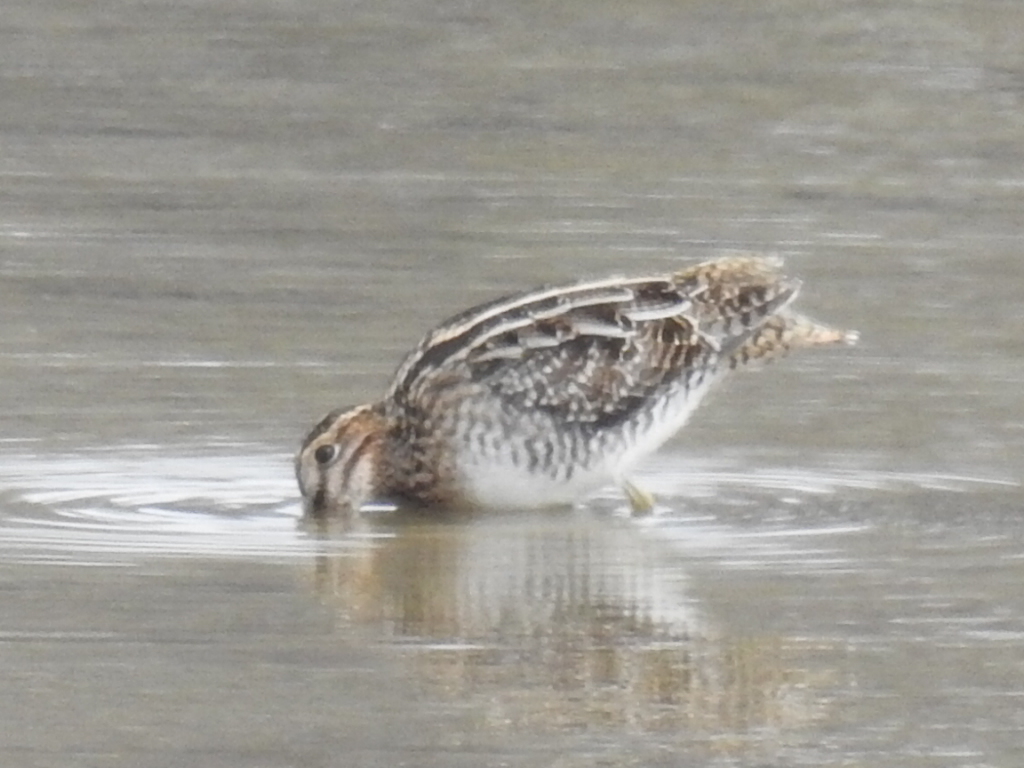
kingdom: Animalia
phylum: Chordata
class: Aves
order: Charadriiformes
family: Scolopacidae
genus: Gallinago
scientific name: Gallinago delicata
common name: Wilson's snipe
